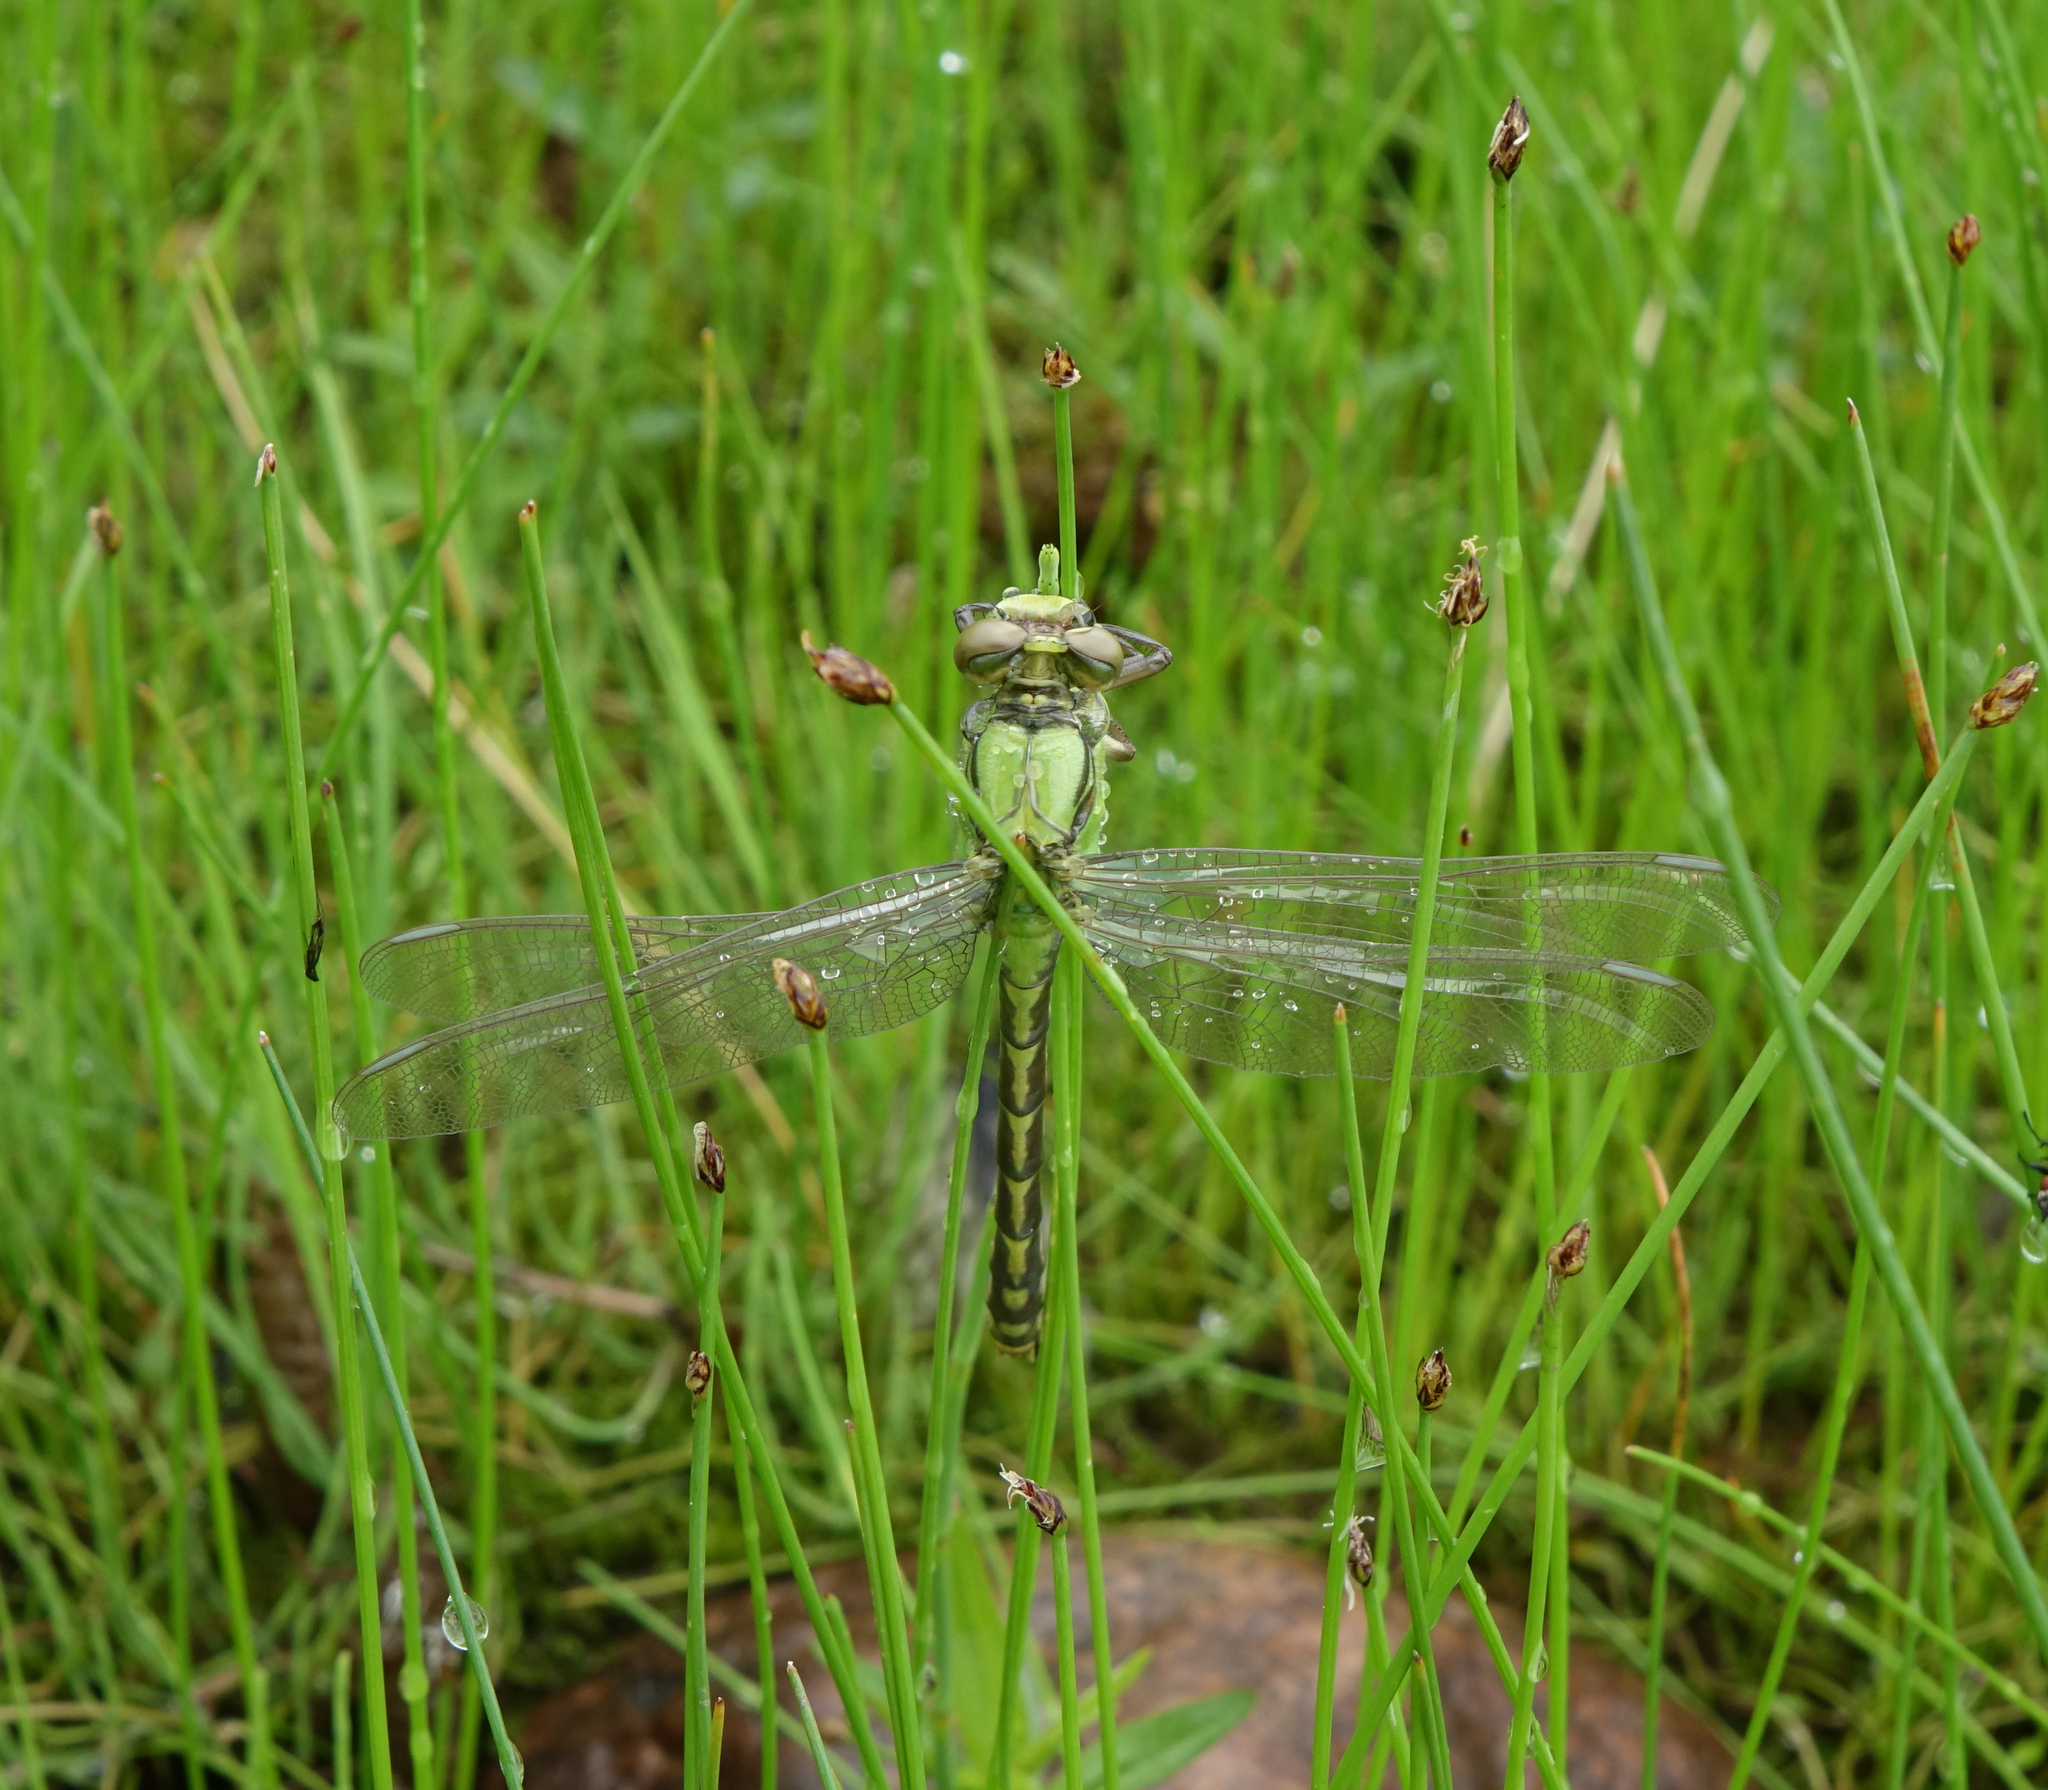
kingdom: Animalia
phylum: Arthropoda
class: Insecta
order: Odonata
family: Gomphidae
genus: Ophiogomphus
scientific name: Ophiogomphus obscurus
